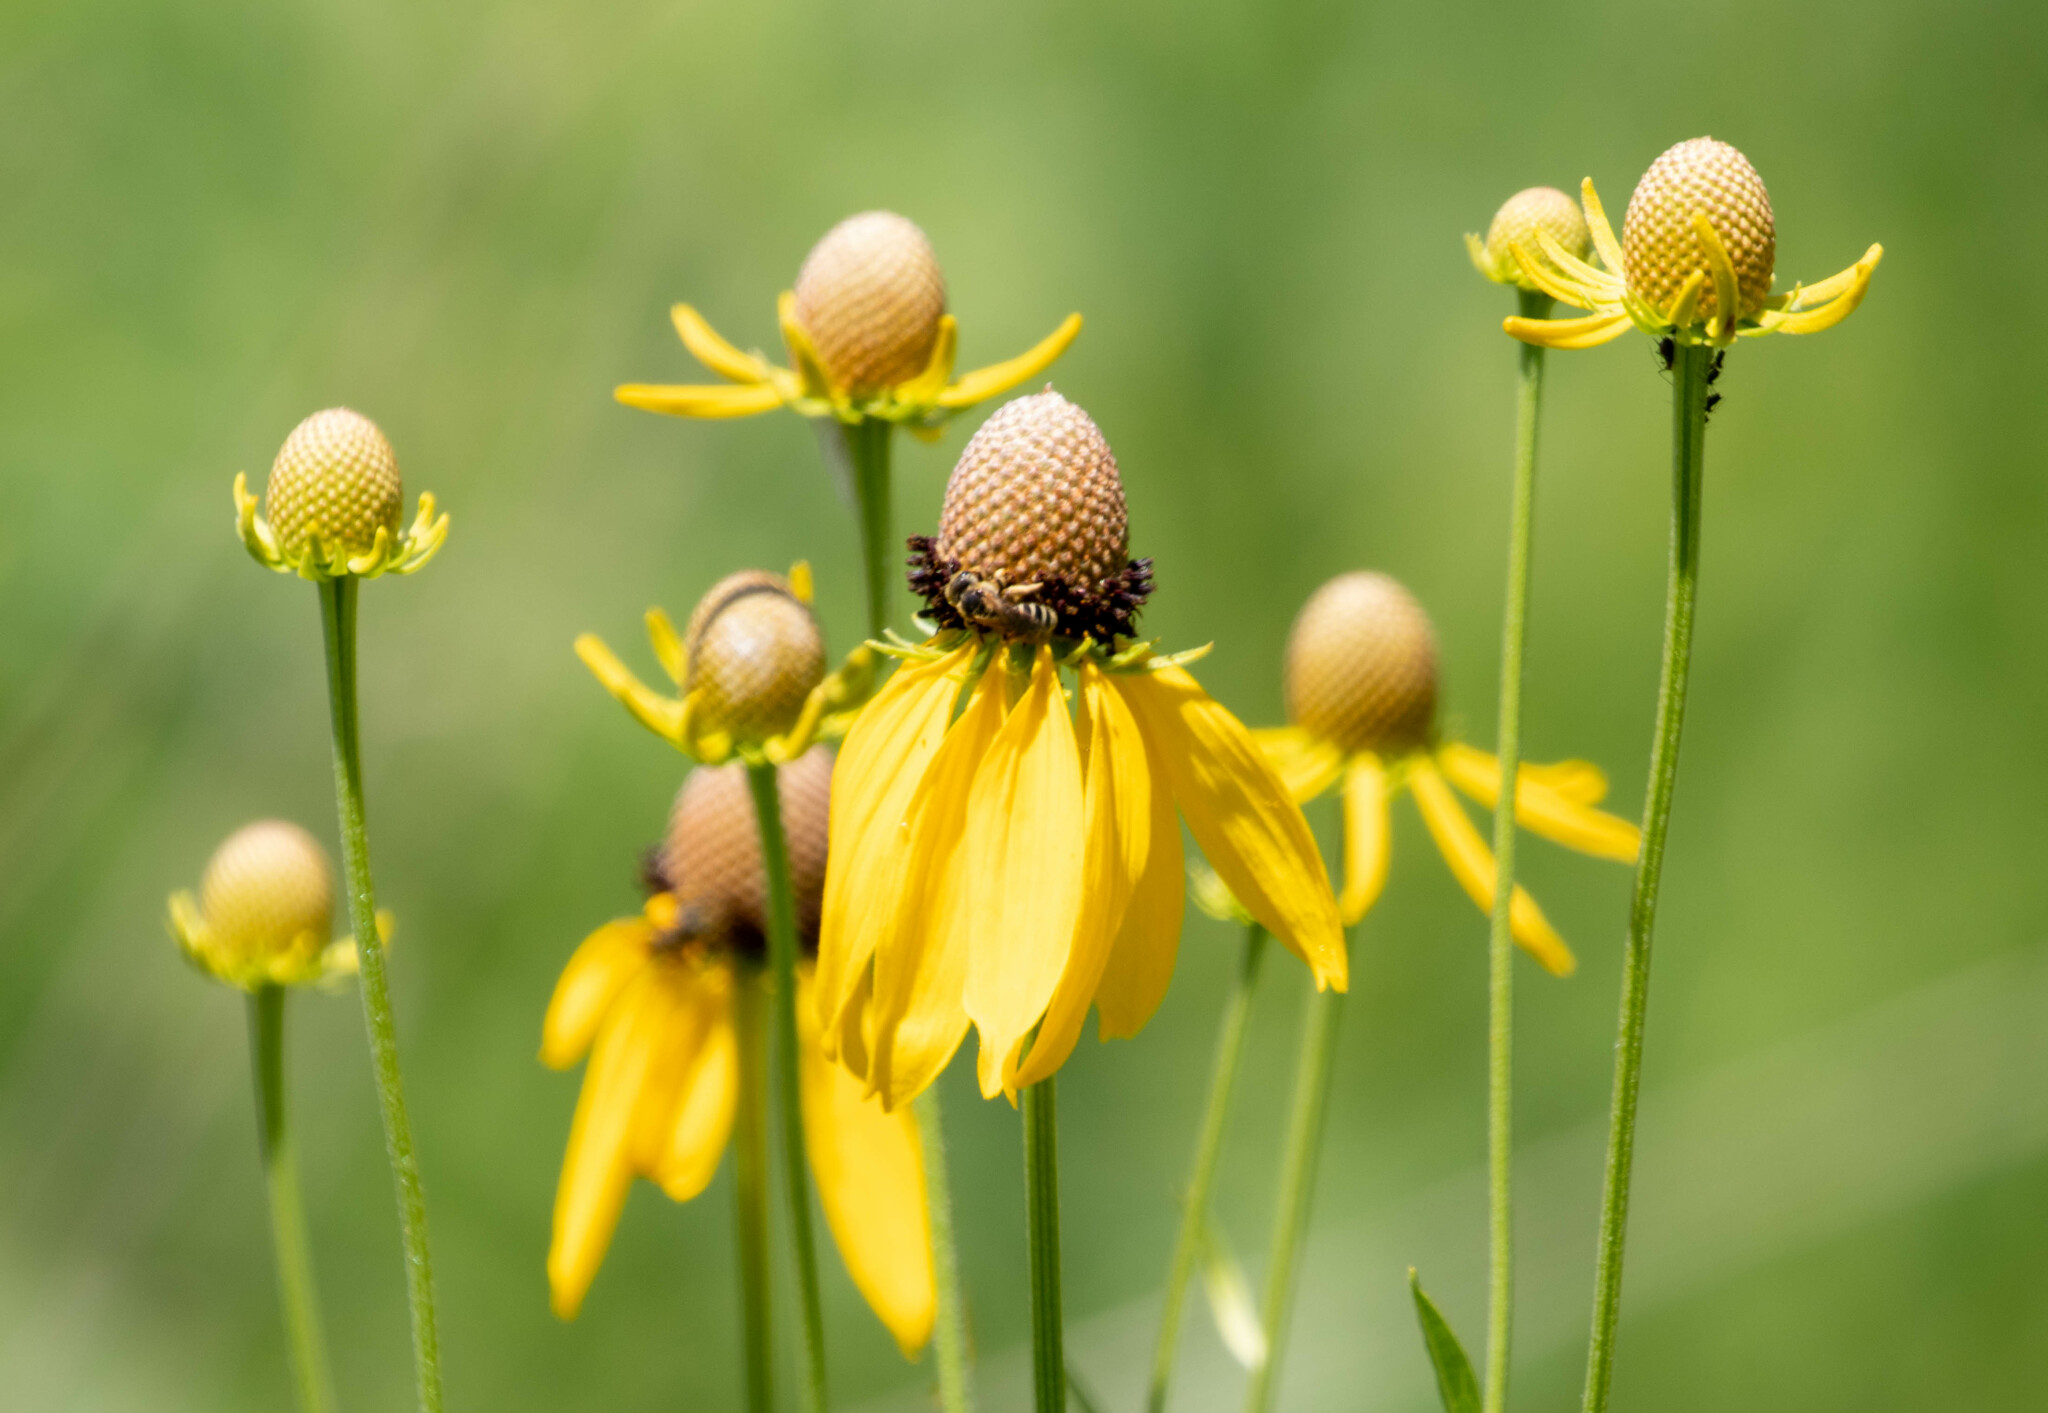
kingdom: Plantae
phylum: Tracheophyta
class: Magnoliopsida
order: Asterales
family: Asteraceae
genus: Ratibida
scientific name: Ratibida pinnata
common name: Drooping prairie-coneflower
